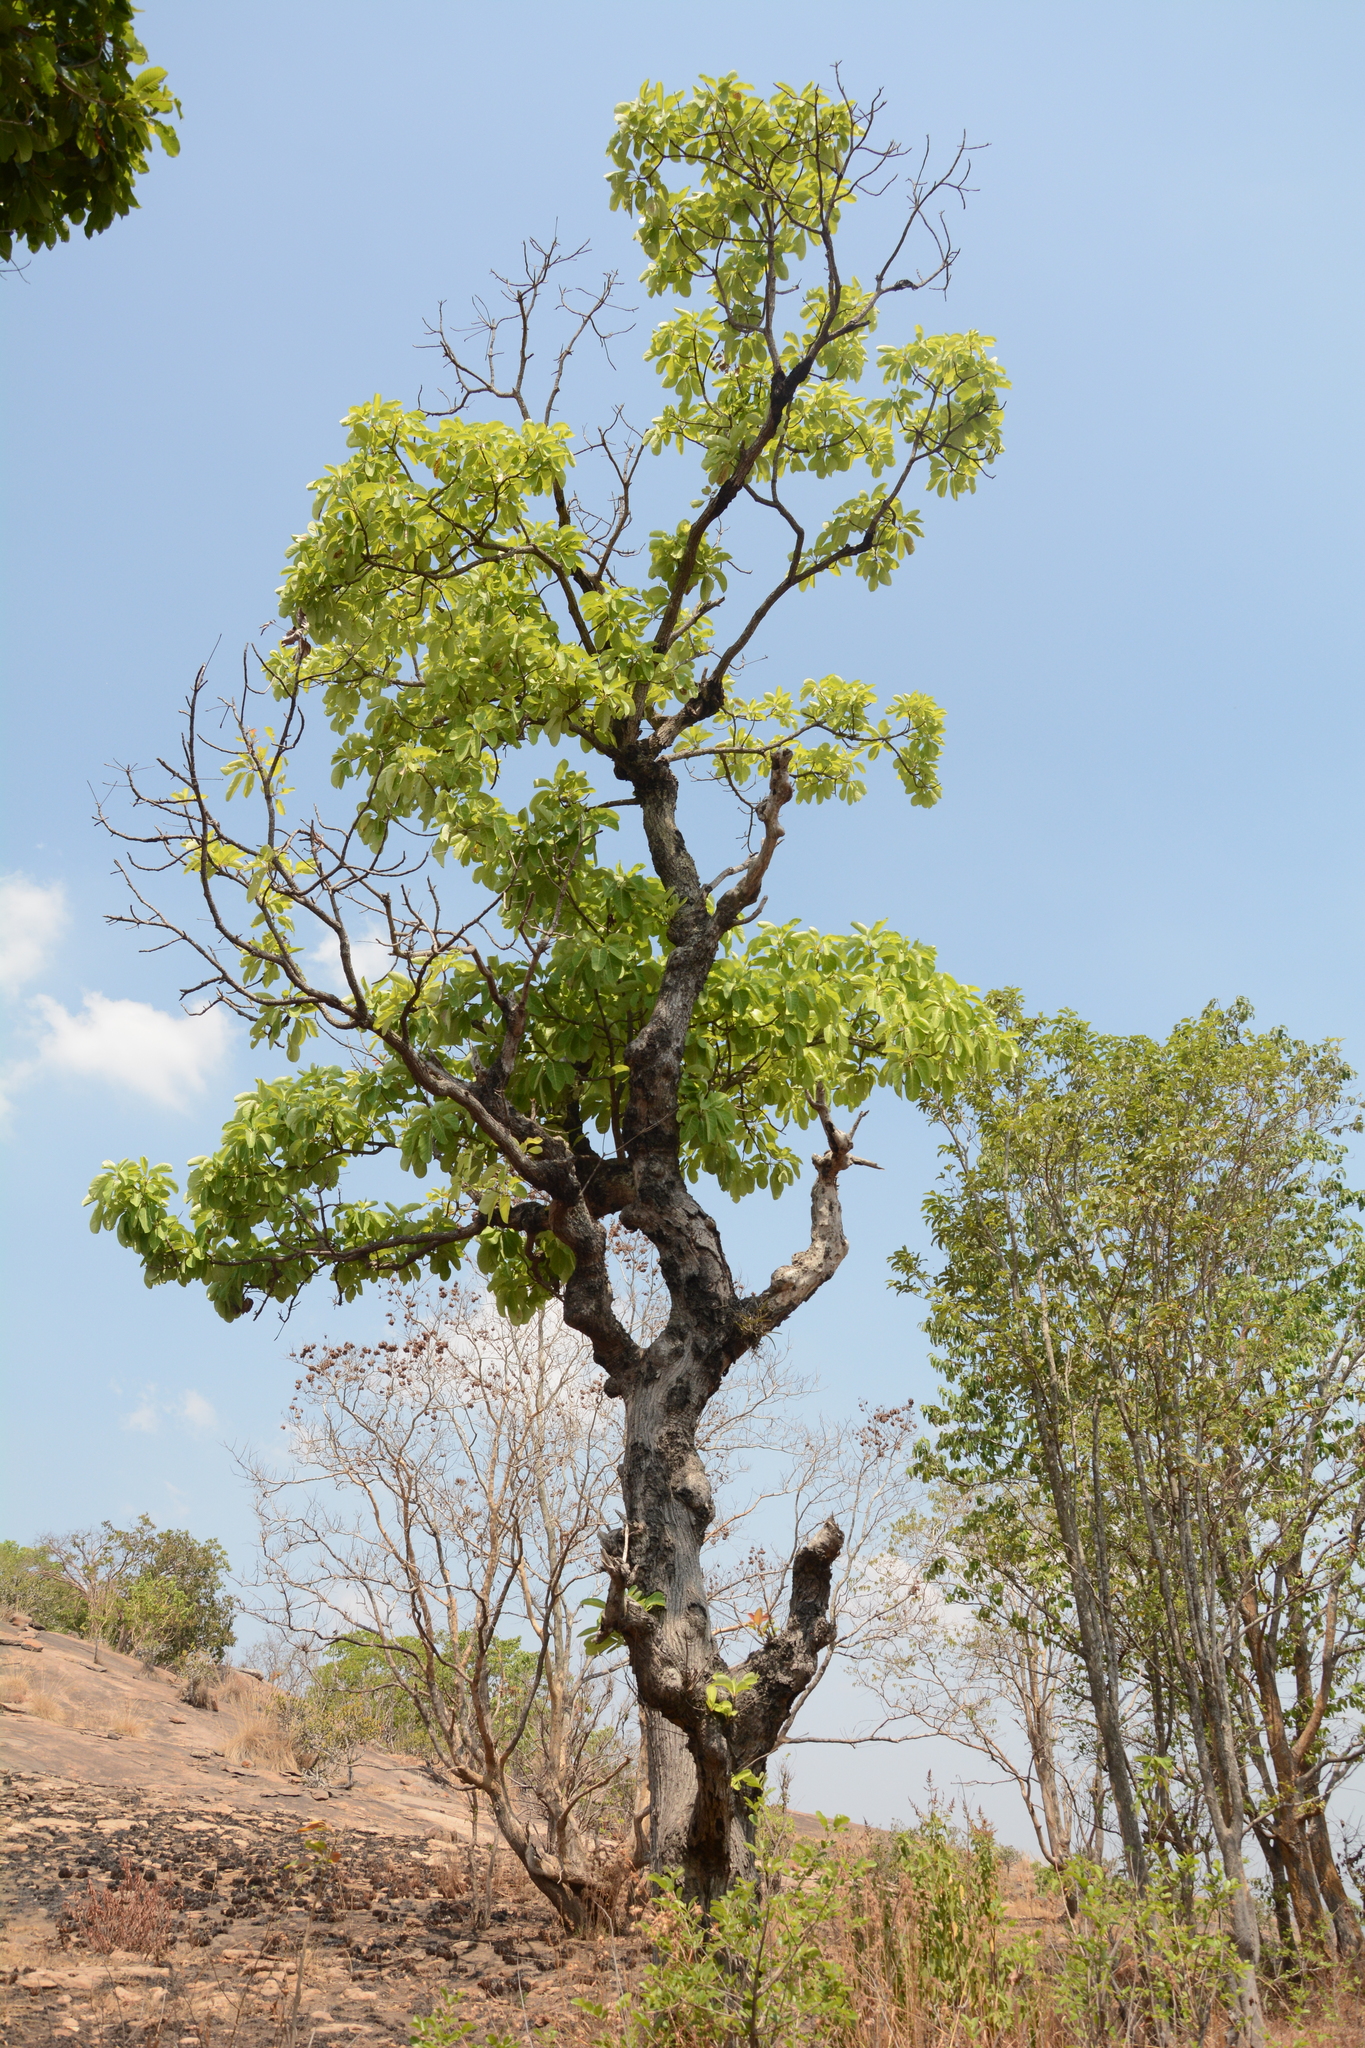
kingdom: Plantae
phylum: Tracheophyta
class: Magnoliopsida
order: Myrtales
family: Combretaceae
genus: Terminalia
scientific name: Terminalia bellirica
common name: Beleric myrobalan
